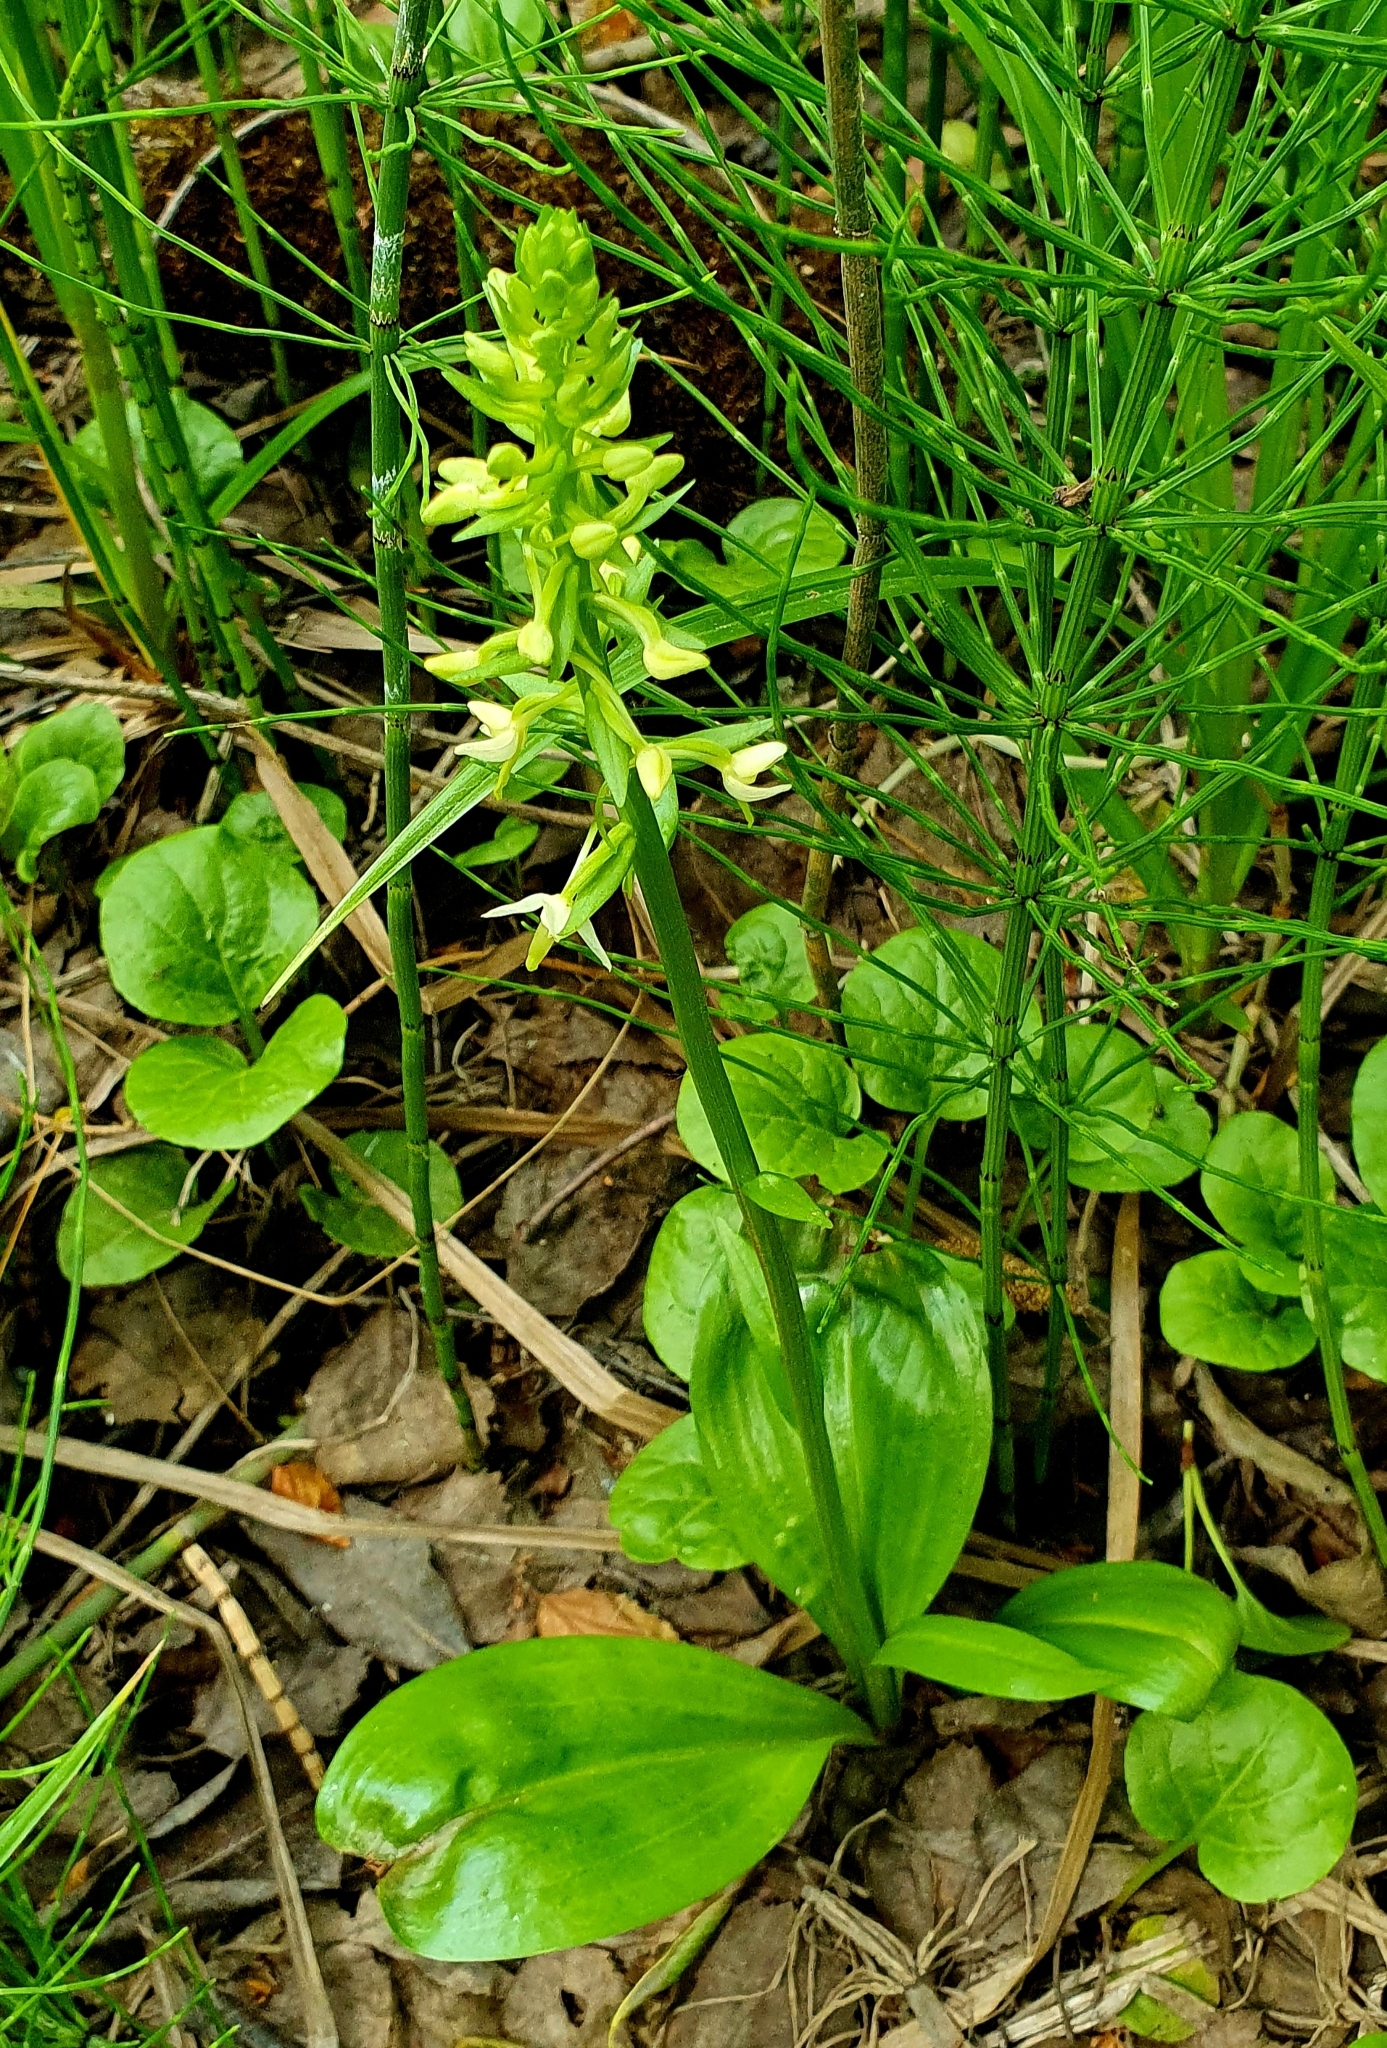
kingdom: Plantae
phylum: Tracheophyta
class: Liliopsida
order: Asparagales
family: Orchidaceae
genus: Platanthera
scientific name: Platanthera bifolia
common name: Lesser butterfly-orchid
